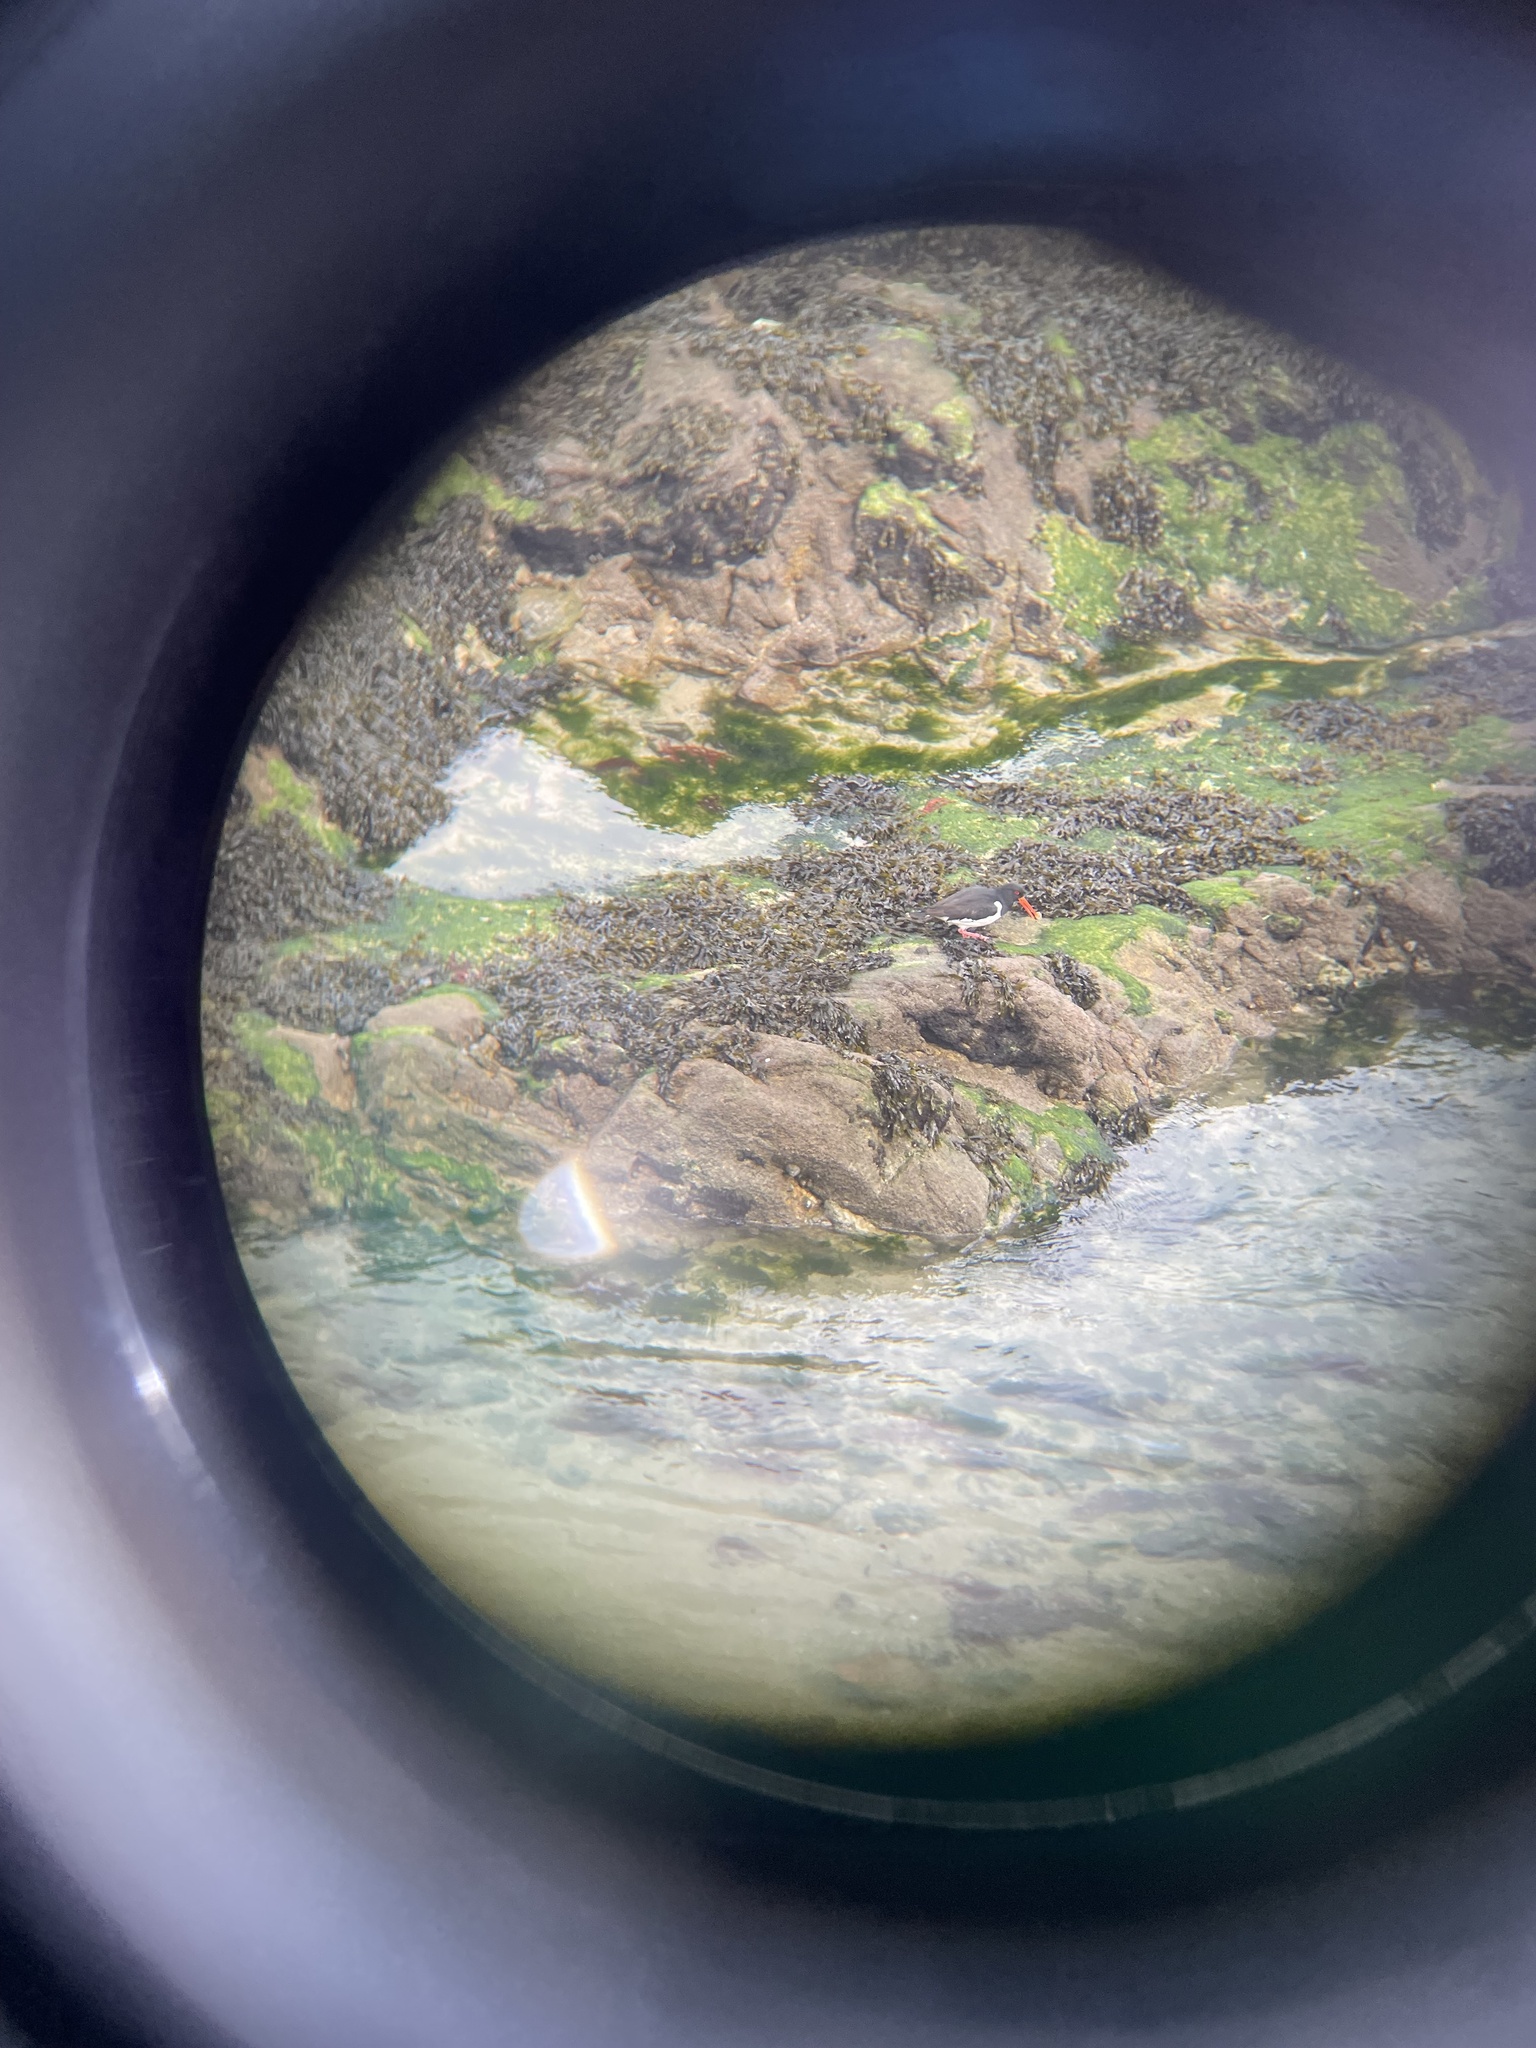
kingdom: Animalia
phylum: Chordata
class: Aves
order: Charadriiformes
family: Haematopodidae
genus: Haematopus
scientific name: Haematopus ostralegus
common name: Eurasian oystercatcher
